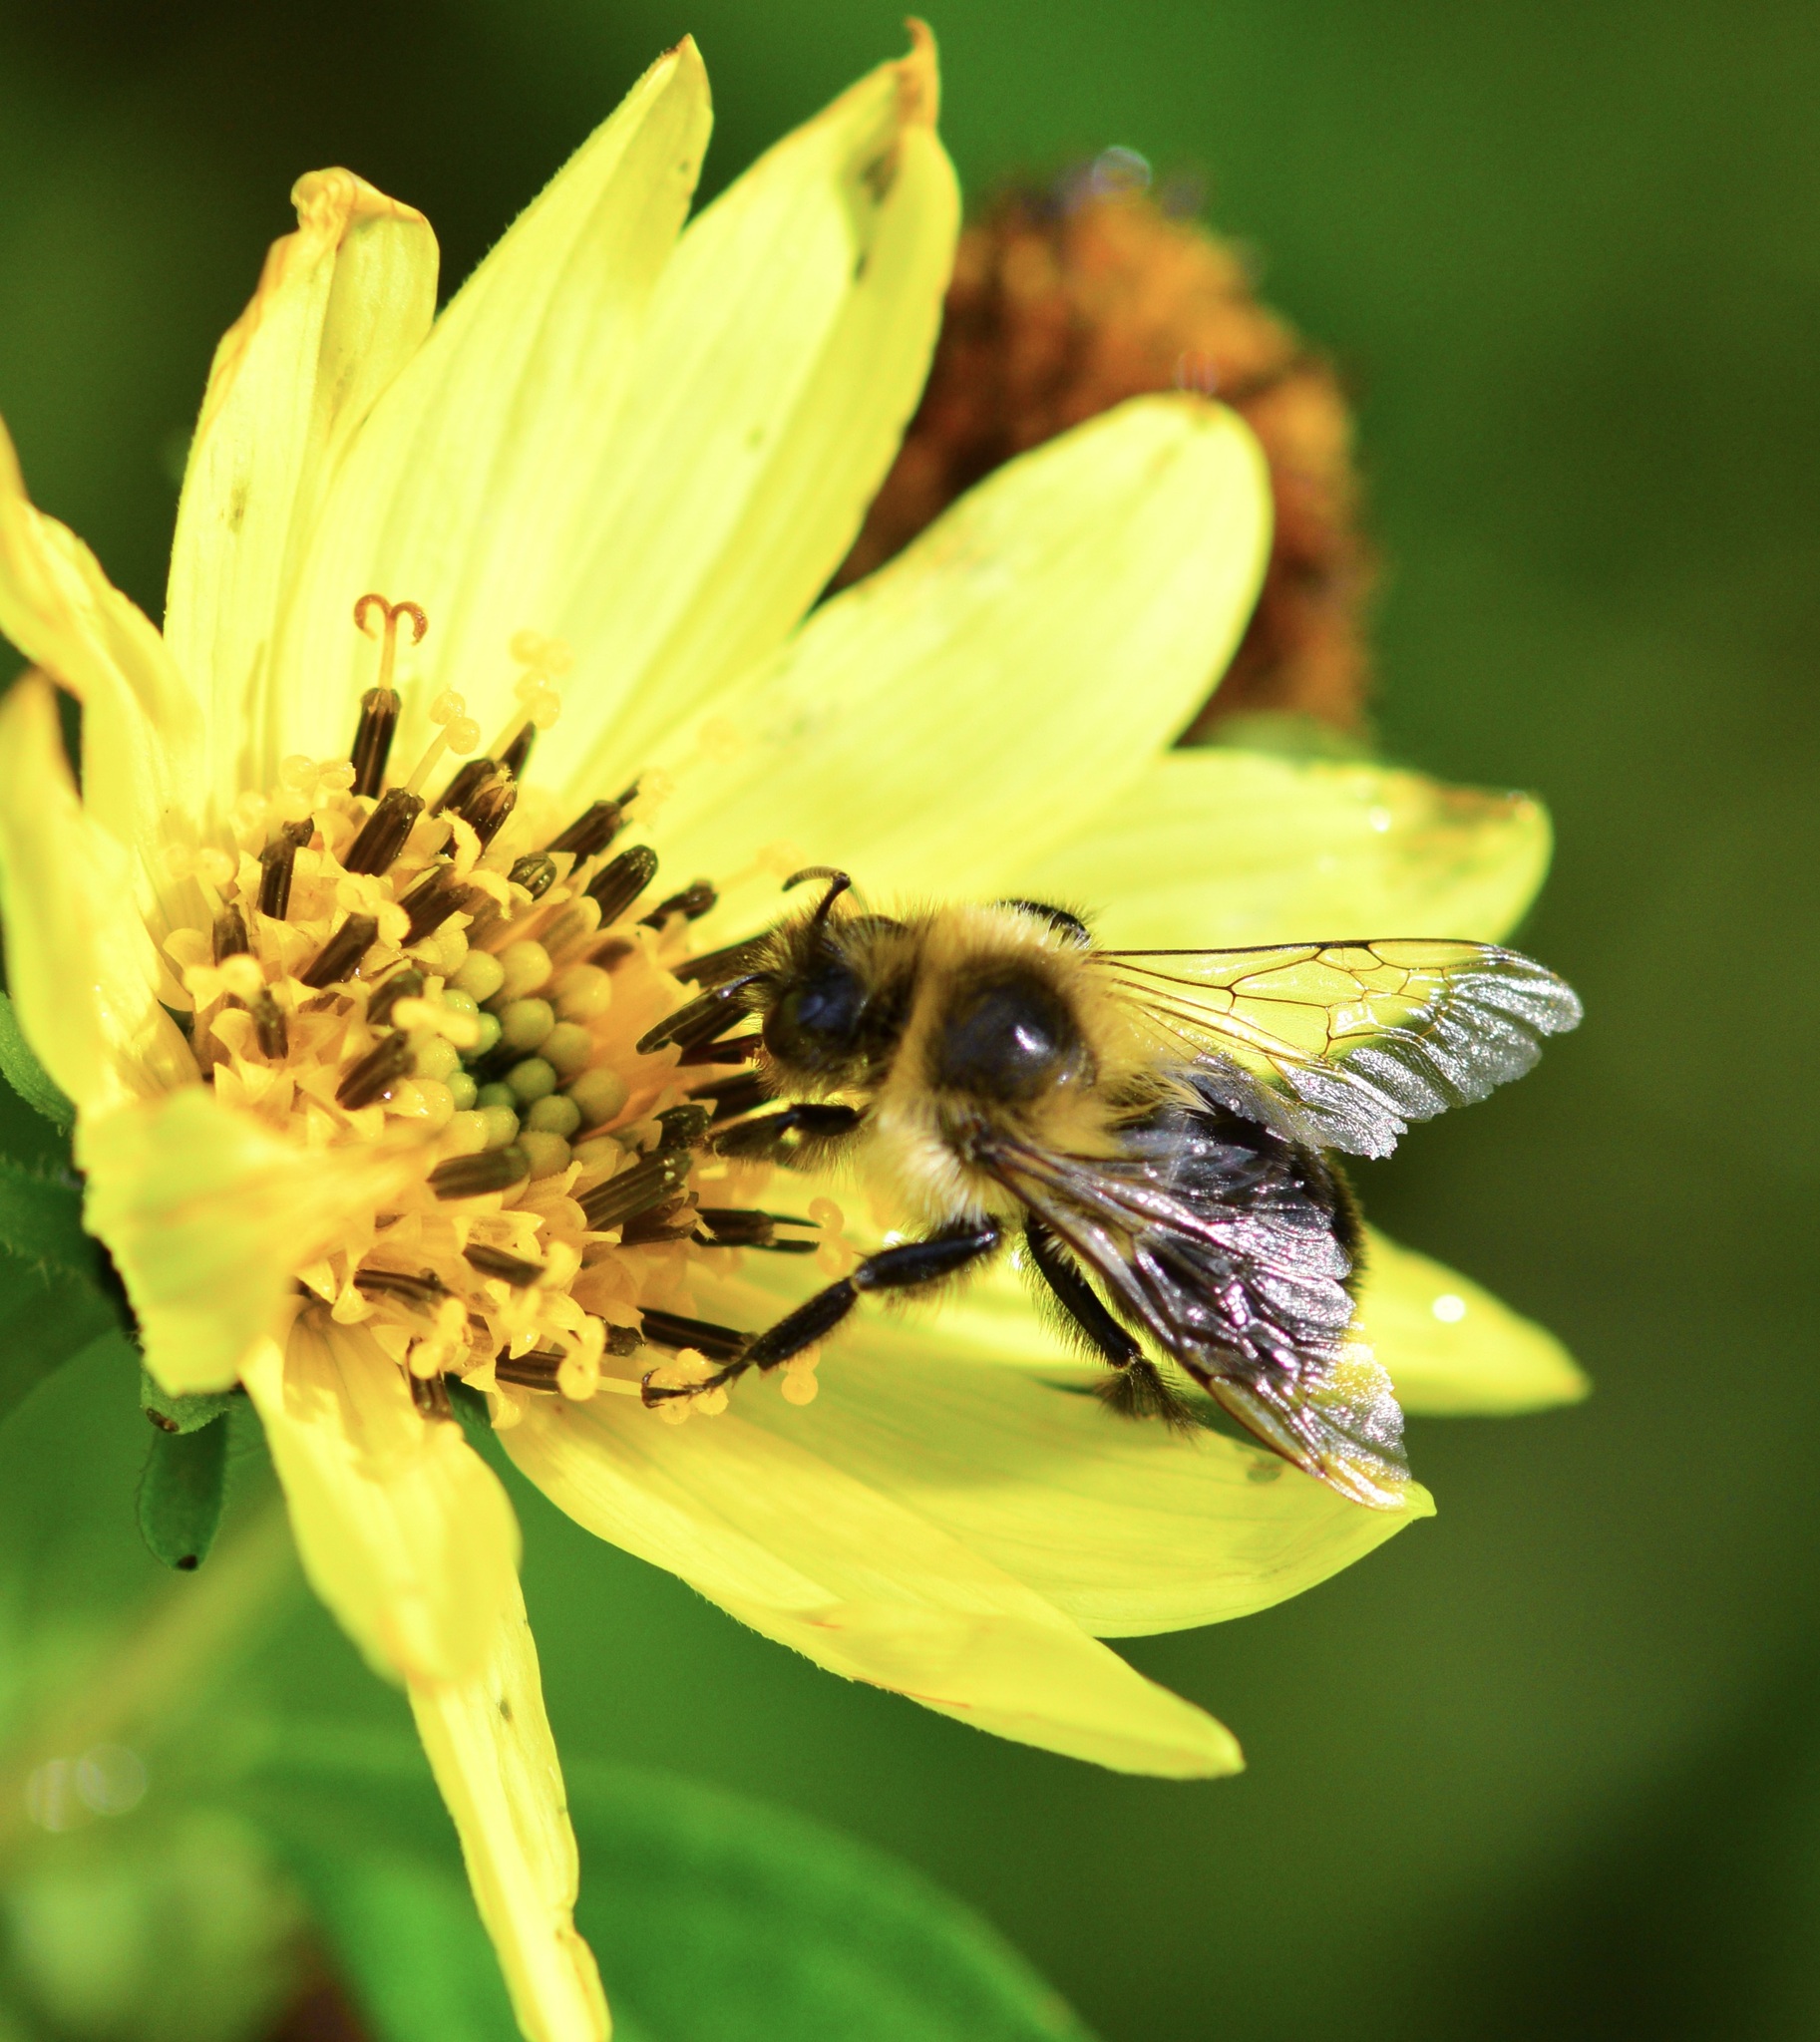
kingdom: Animalia
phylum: Arthropoda
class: Insecta
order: Hymenoptera
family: Apidae
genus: Bombus
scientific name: Bombus impatiens
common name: Common eastern bumble bee
